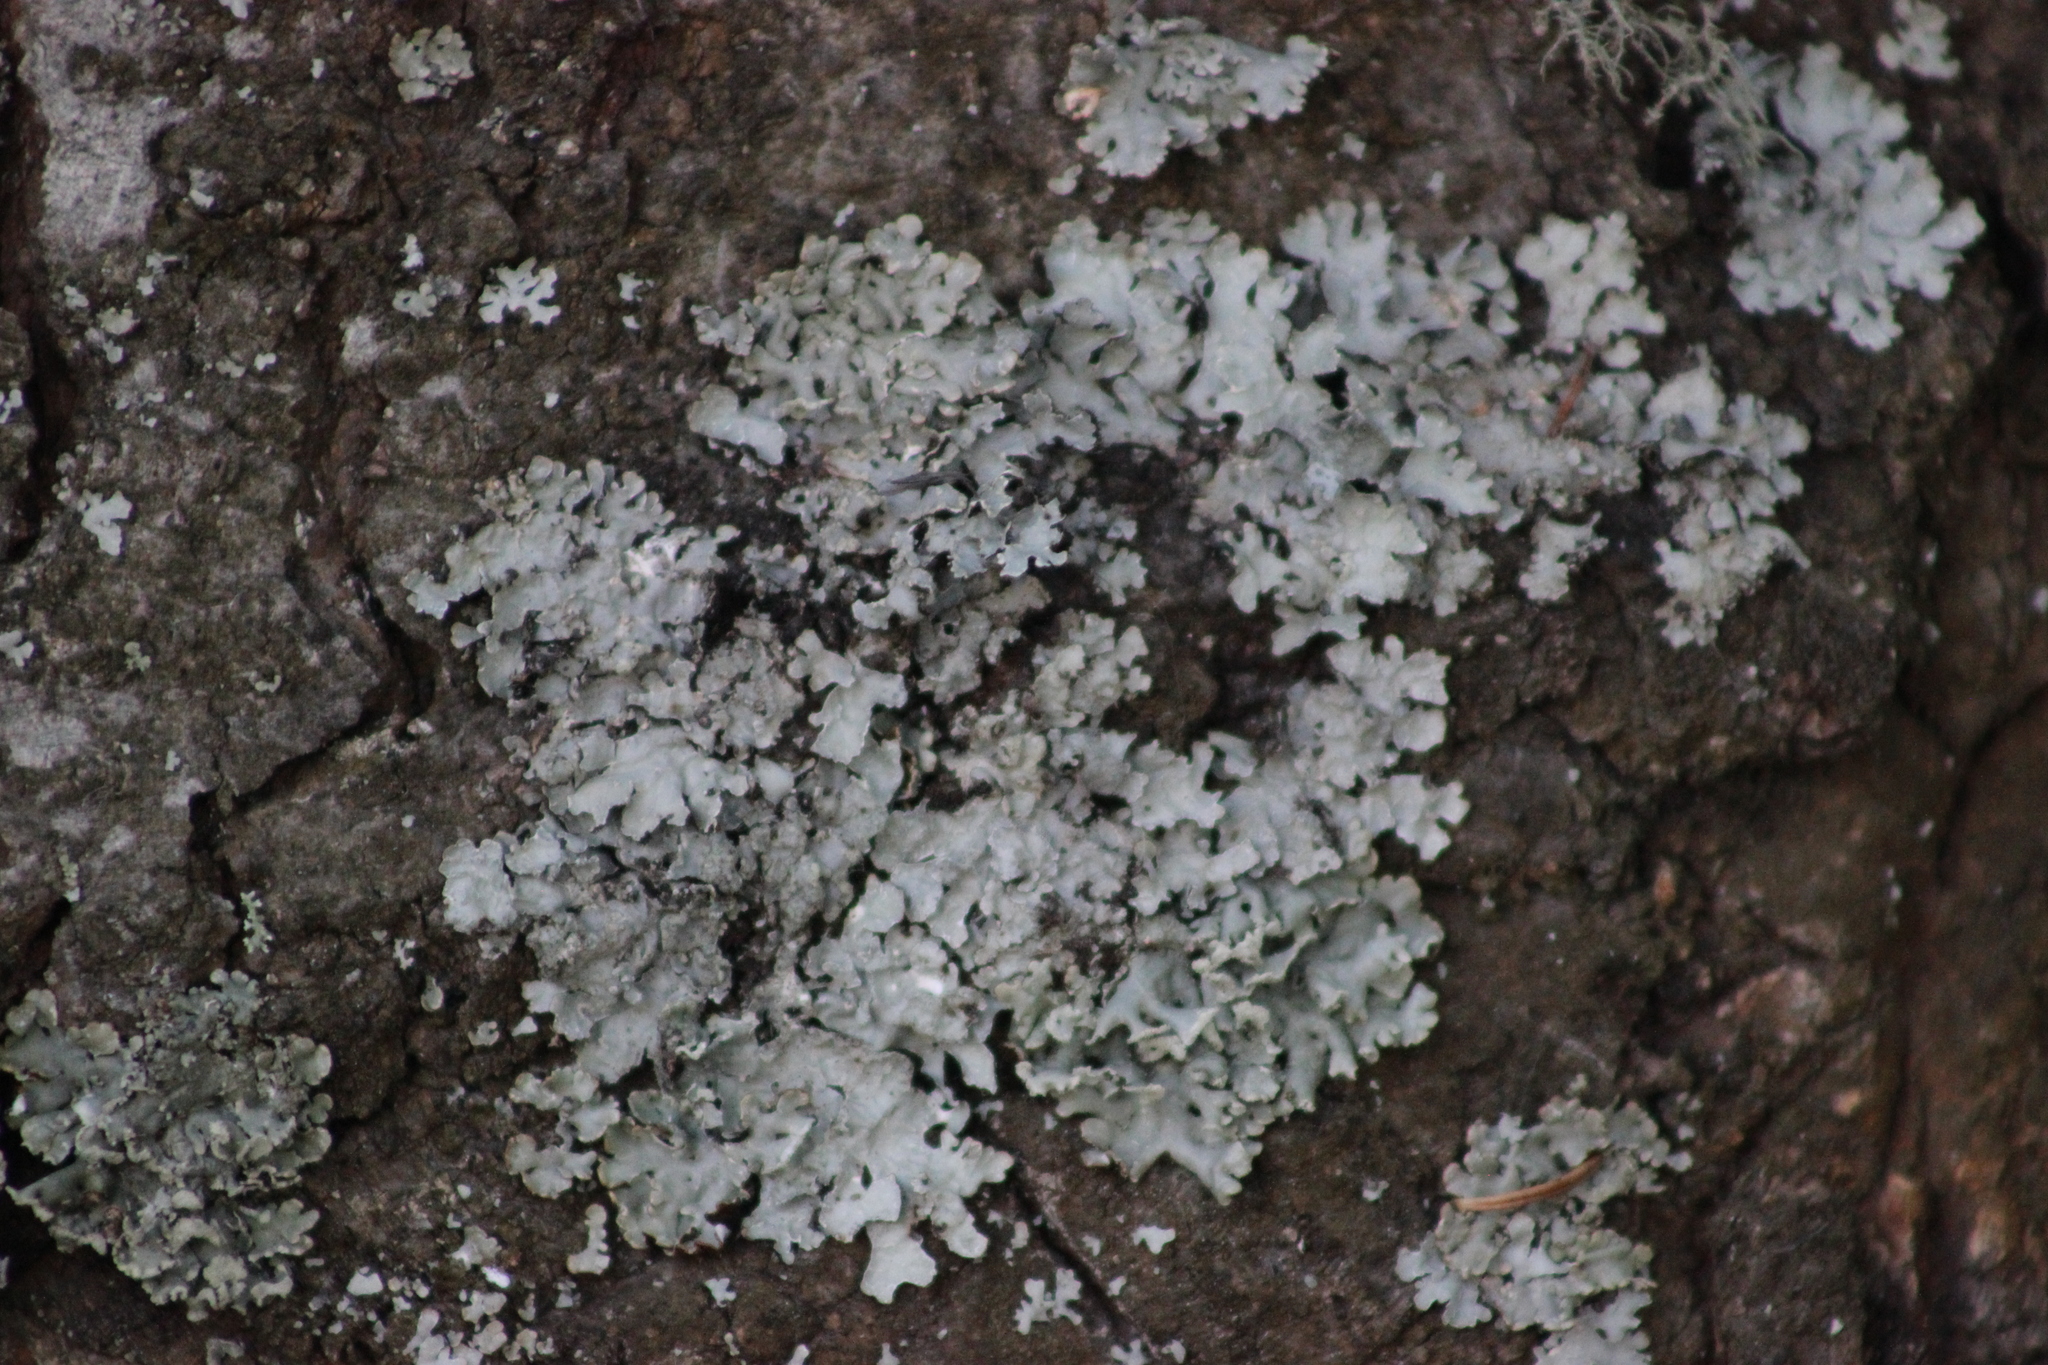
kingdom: Fungi
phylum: Ascomycota
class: Lecanoromycetes
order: Lecanorales
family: Parmeliaceae
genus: Parmelia
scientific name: Parmelia sulcata
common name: Netted shield lichen
